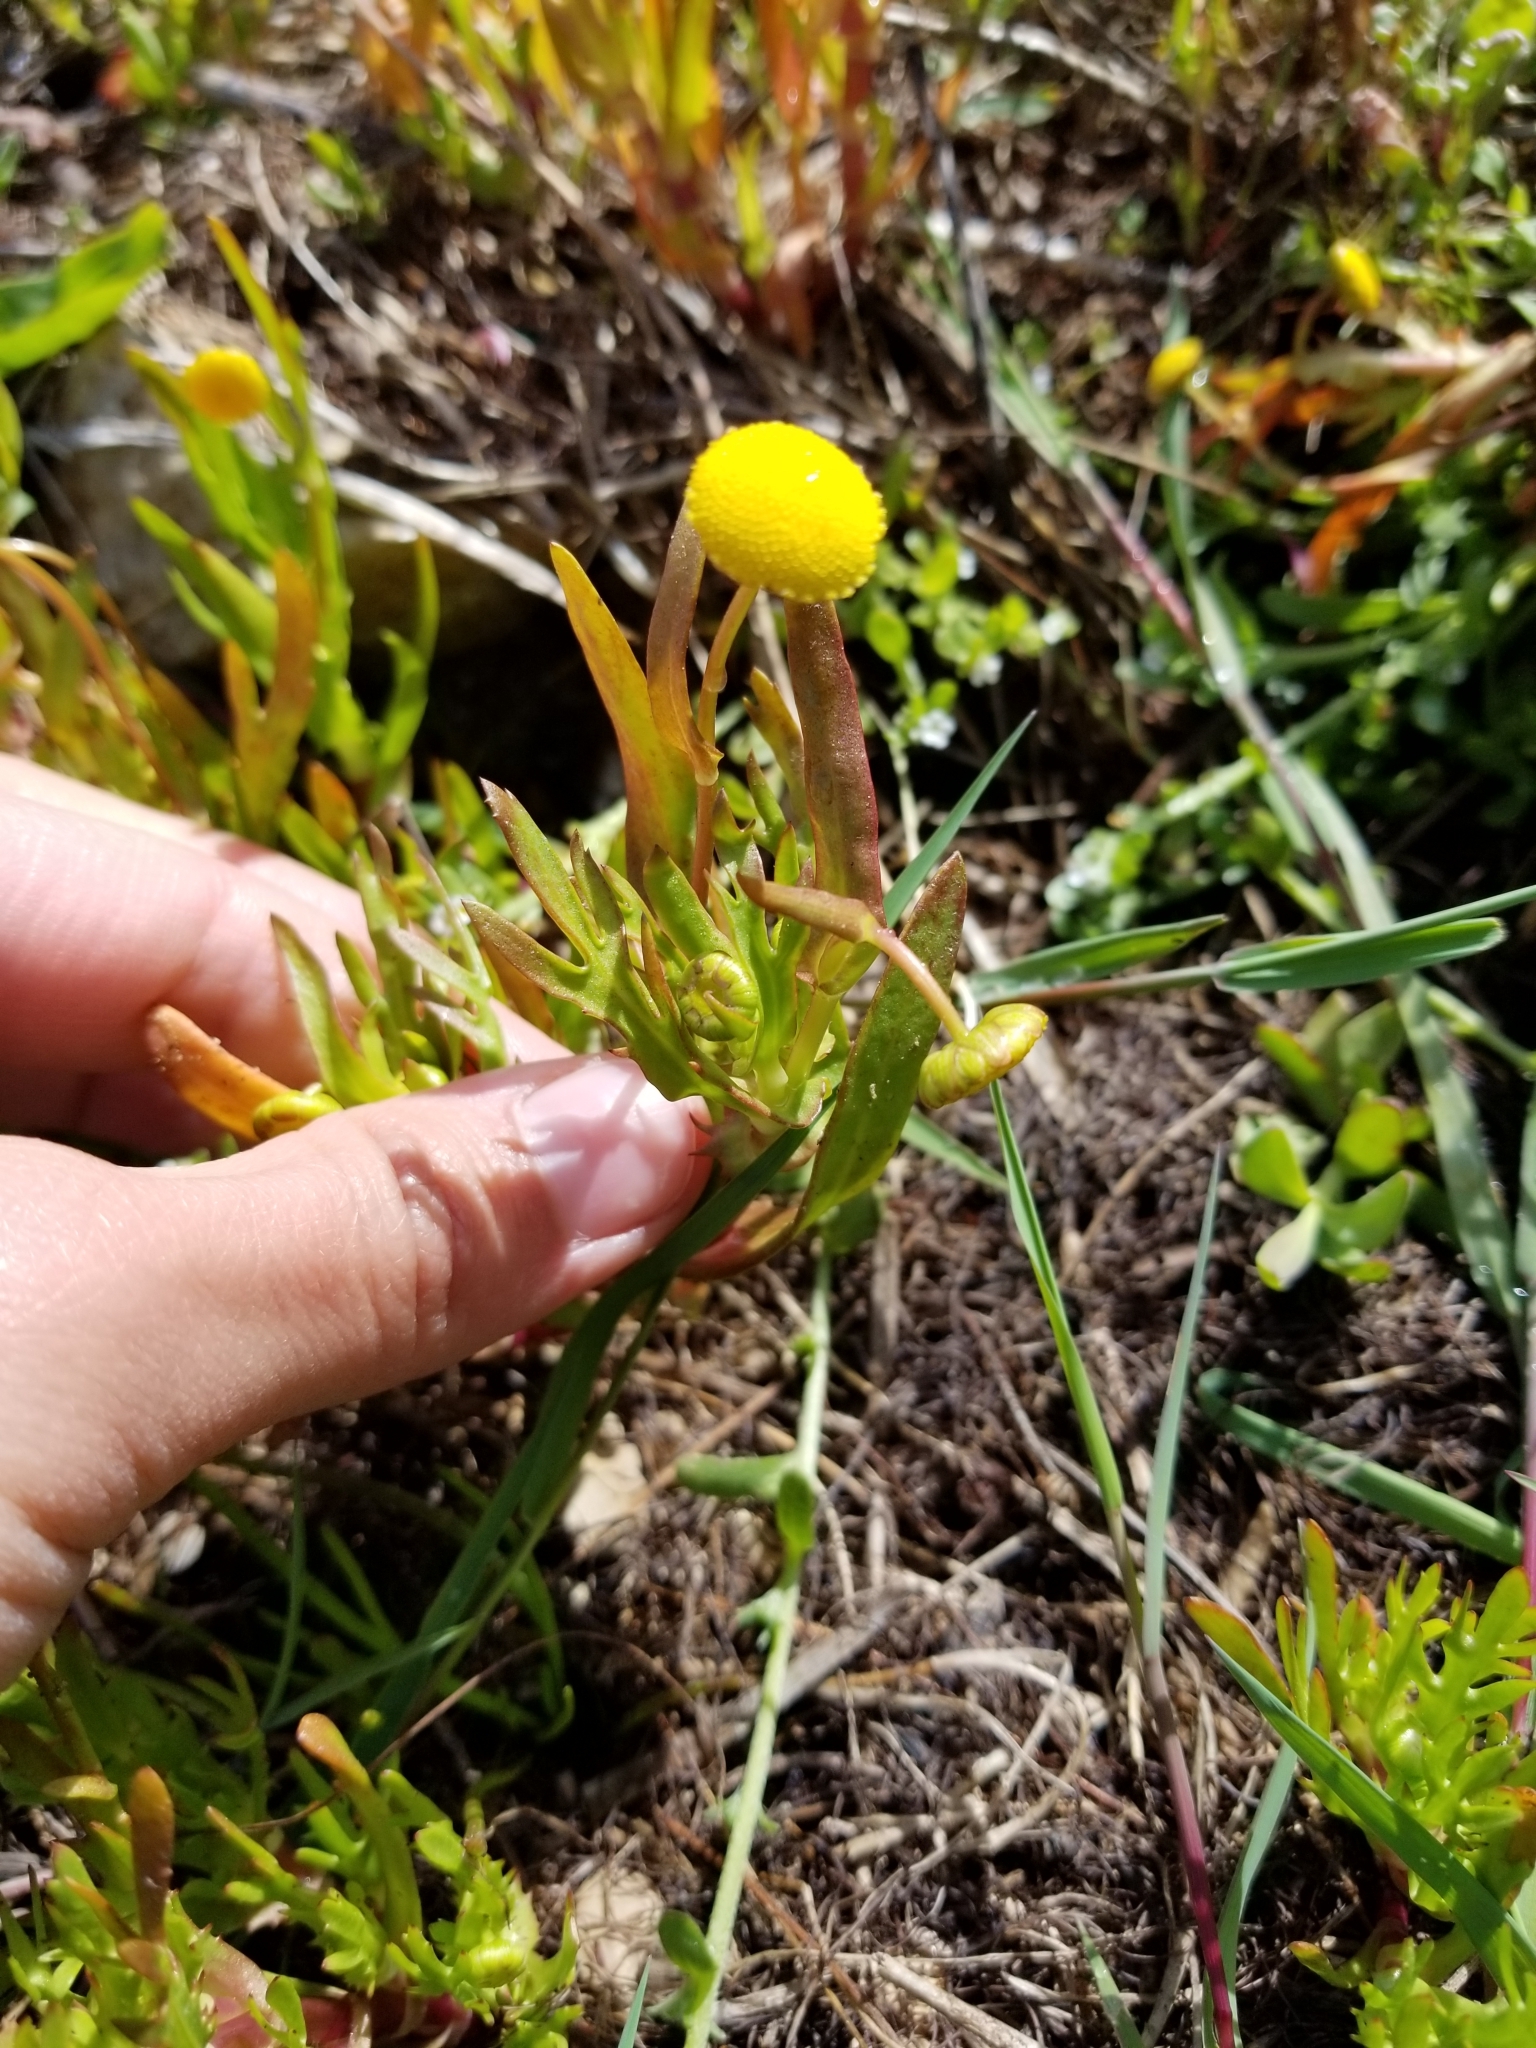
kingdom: Plantae
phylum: Tracheophyta
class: Magnoliopsida
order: Asterales
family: Asteraceae
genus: Cotula
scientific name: Cotula coronopifolia
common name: Buttonweed
